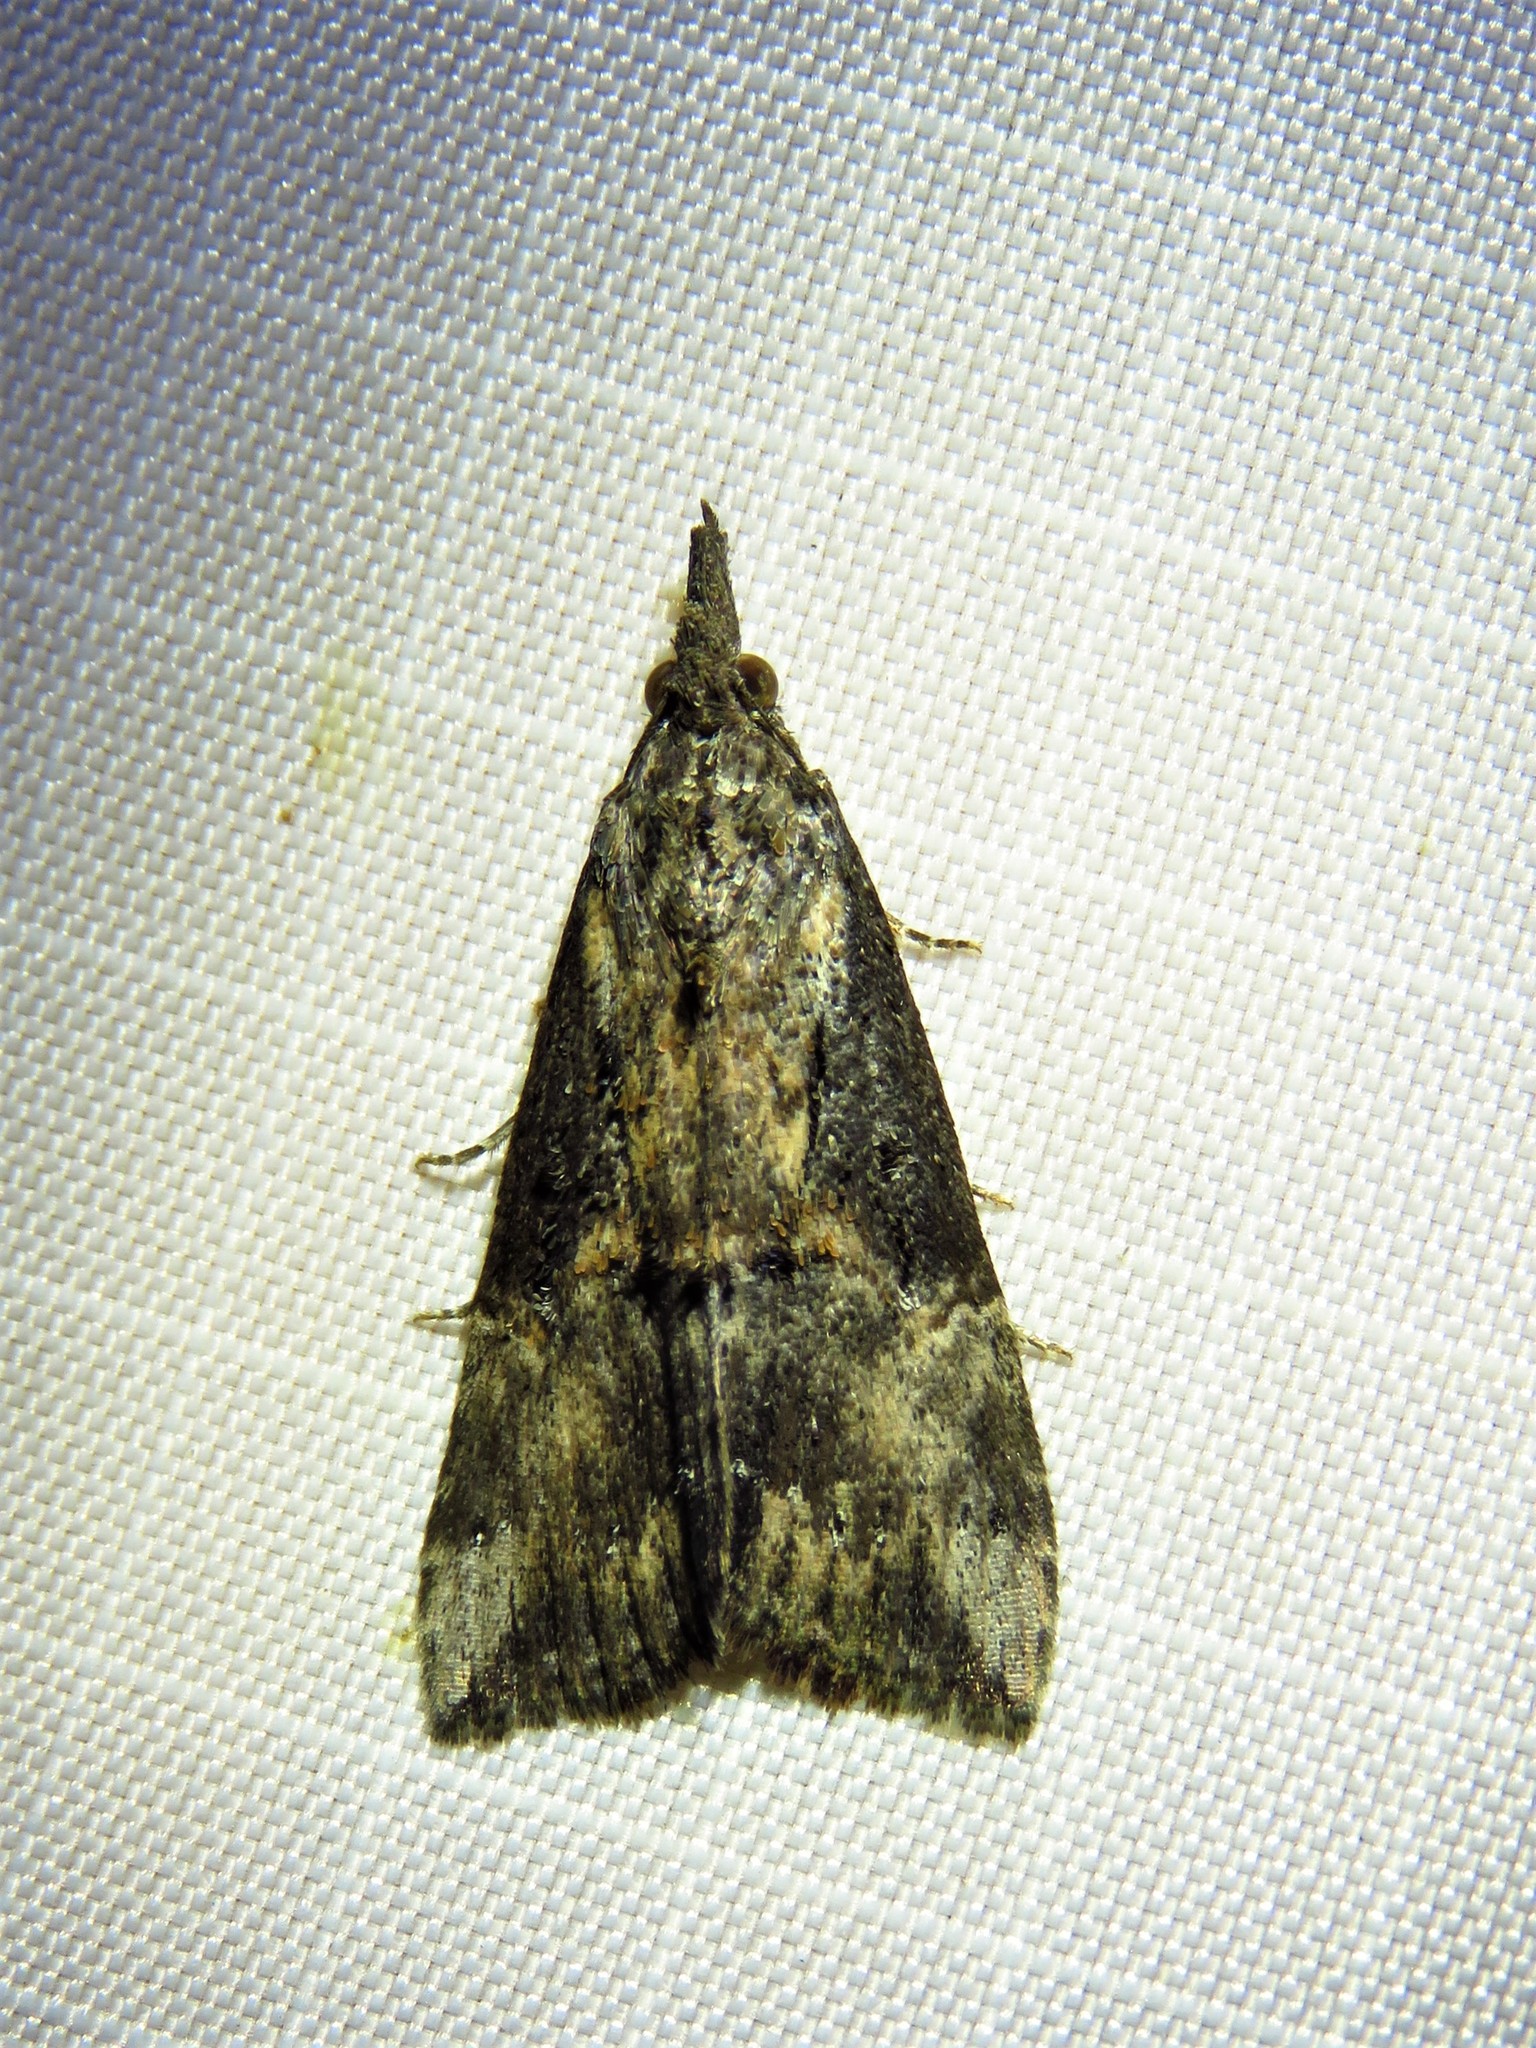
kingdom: Animalia
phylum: Arthropoda
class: Insecta
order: Lepidoptera
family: Erebidae
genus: Hypena
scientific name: Hypena scabra
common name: Green cloverworm
